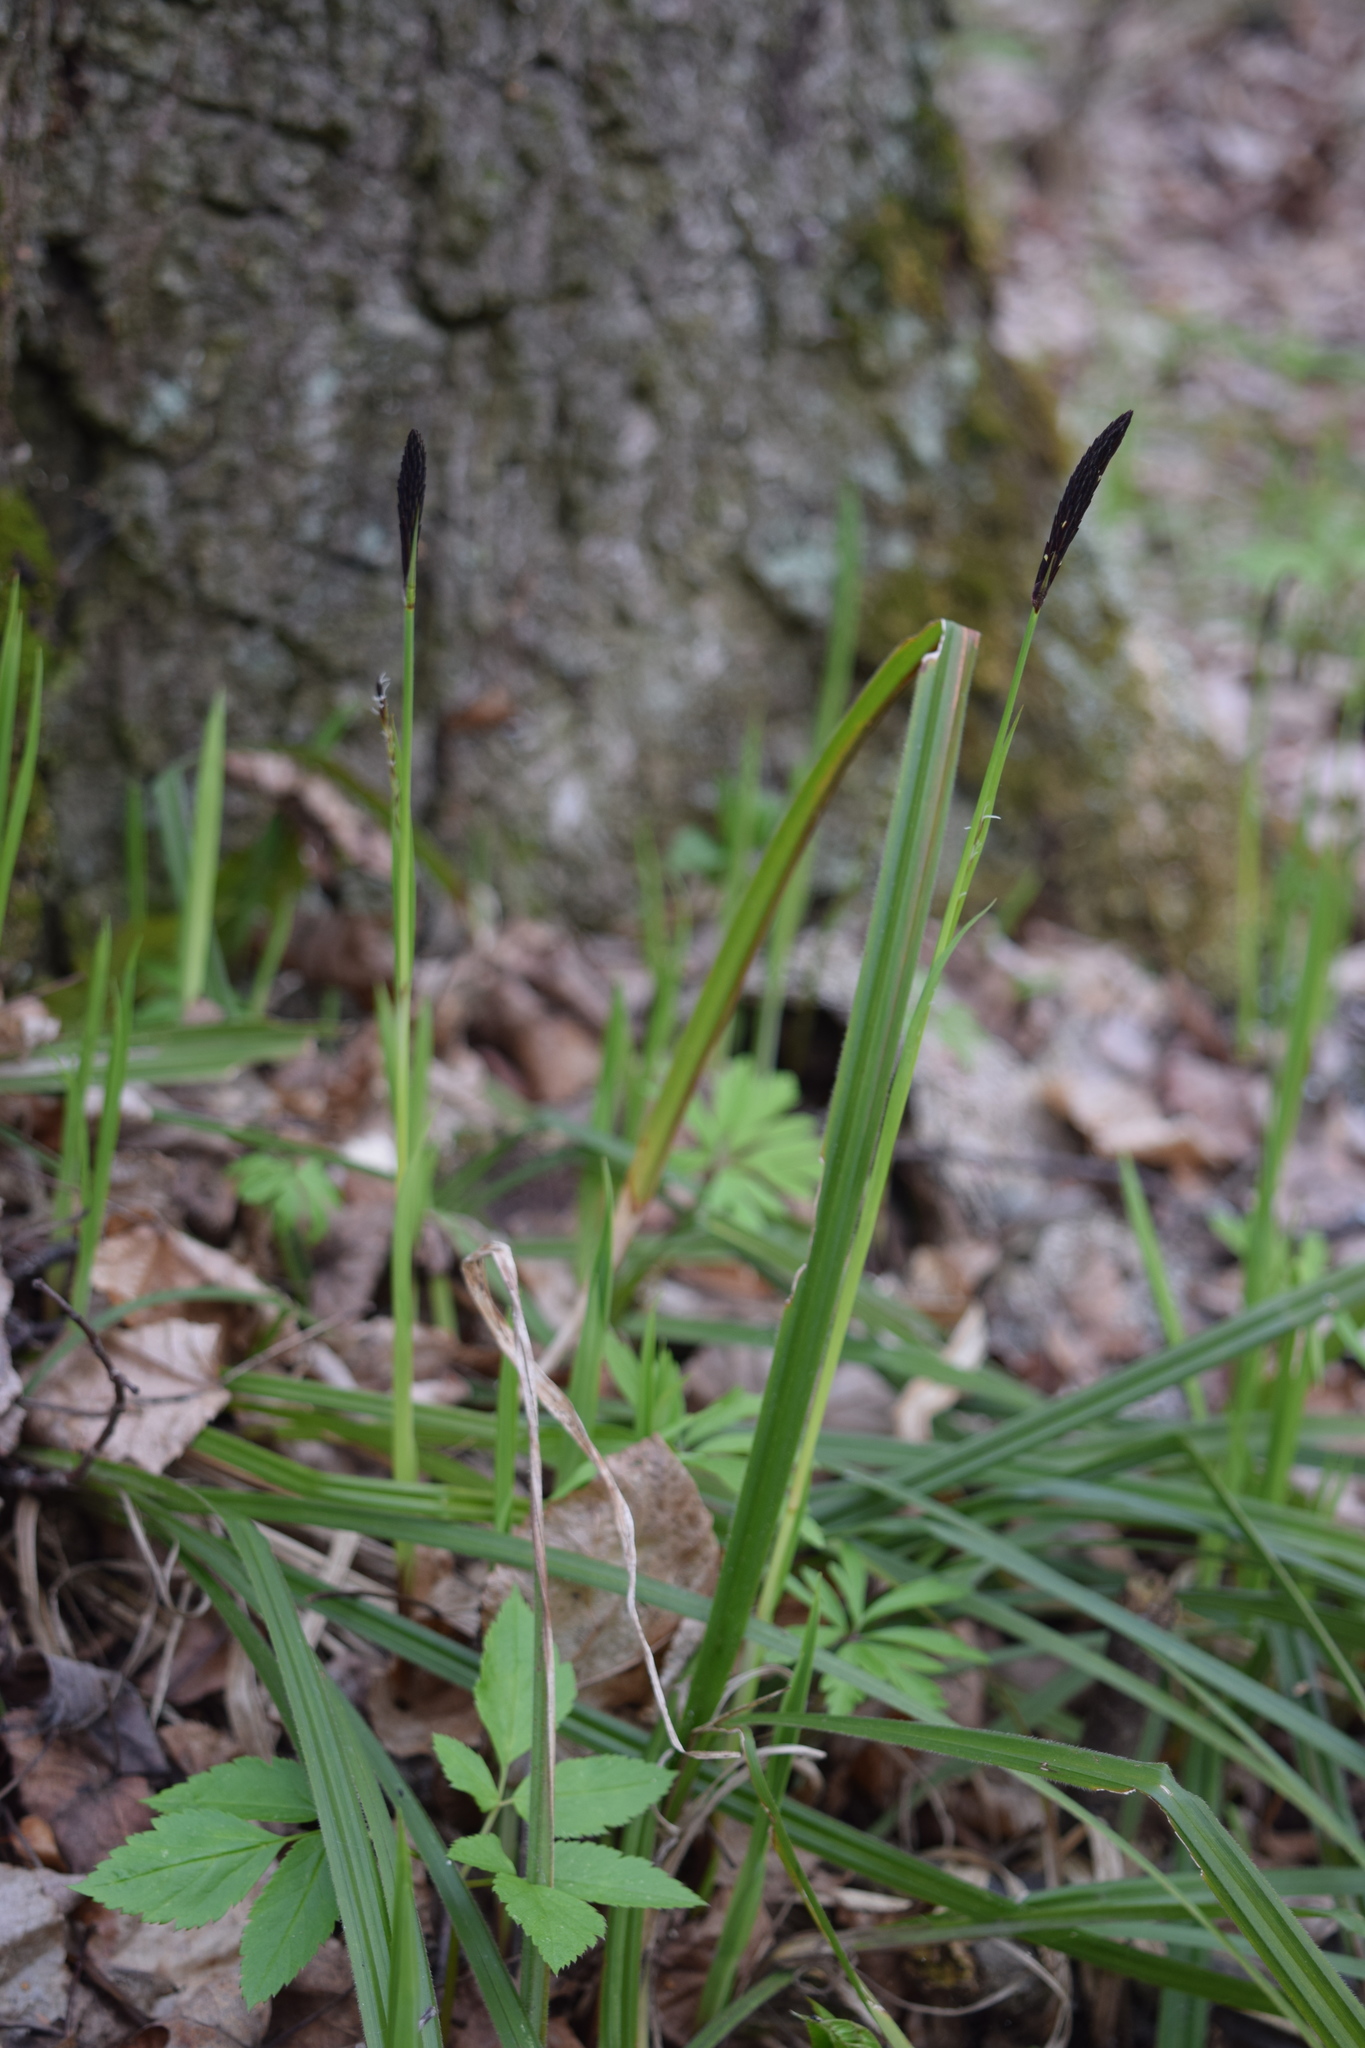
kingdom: Plantae
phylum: Tracheophyta
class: Liliopsida
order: Poales
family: Cyperaceae
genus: Carex
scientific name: Carex pilosa
